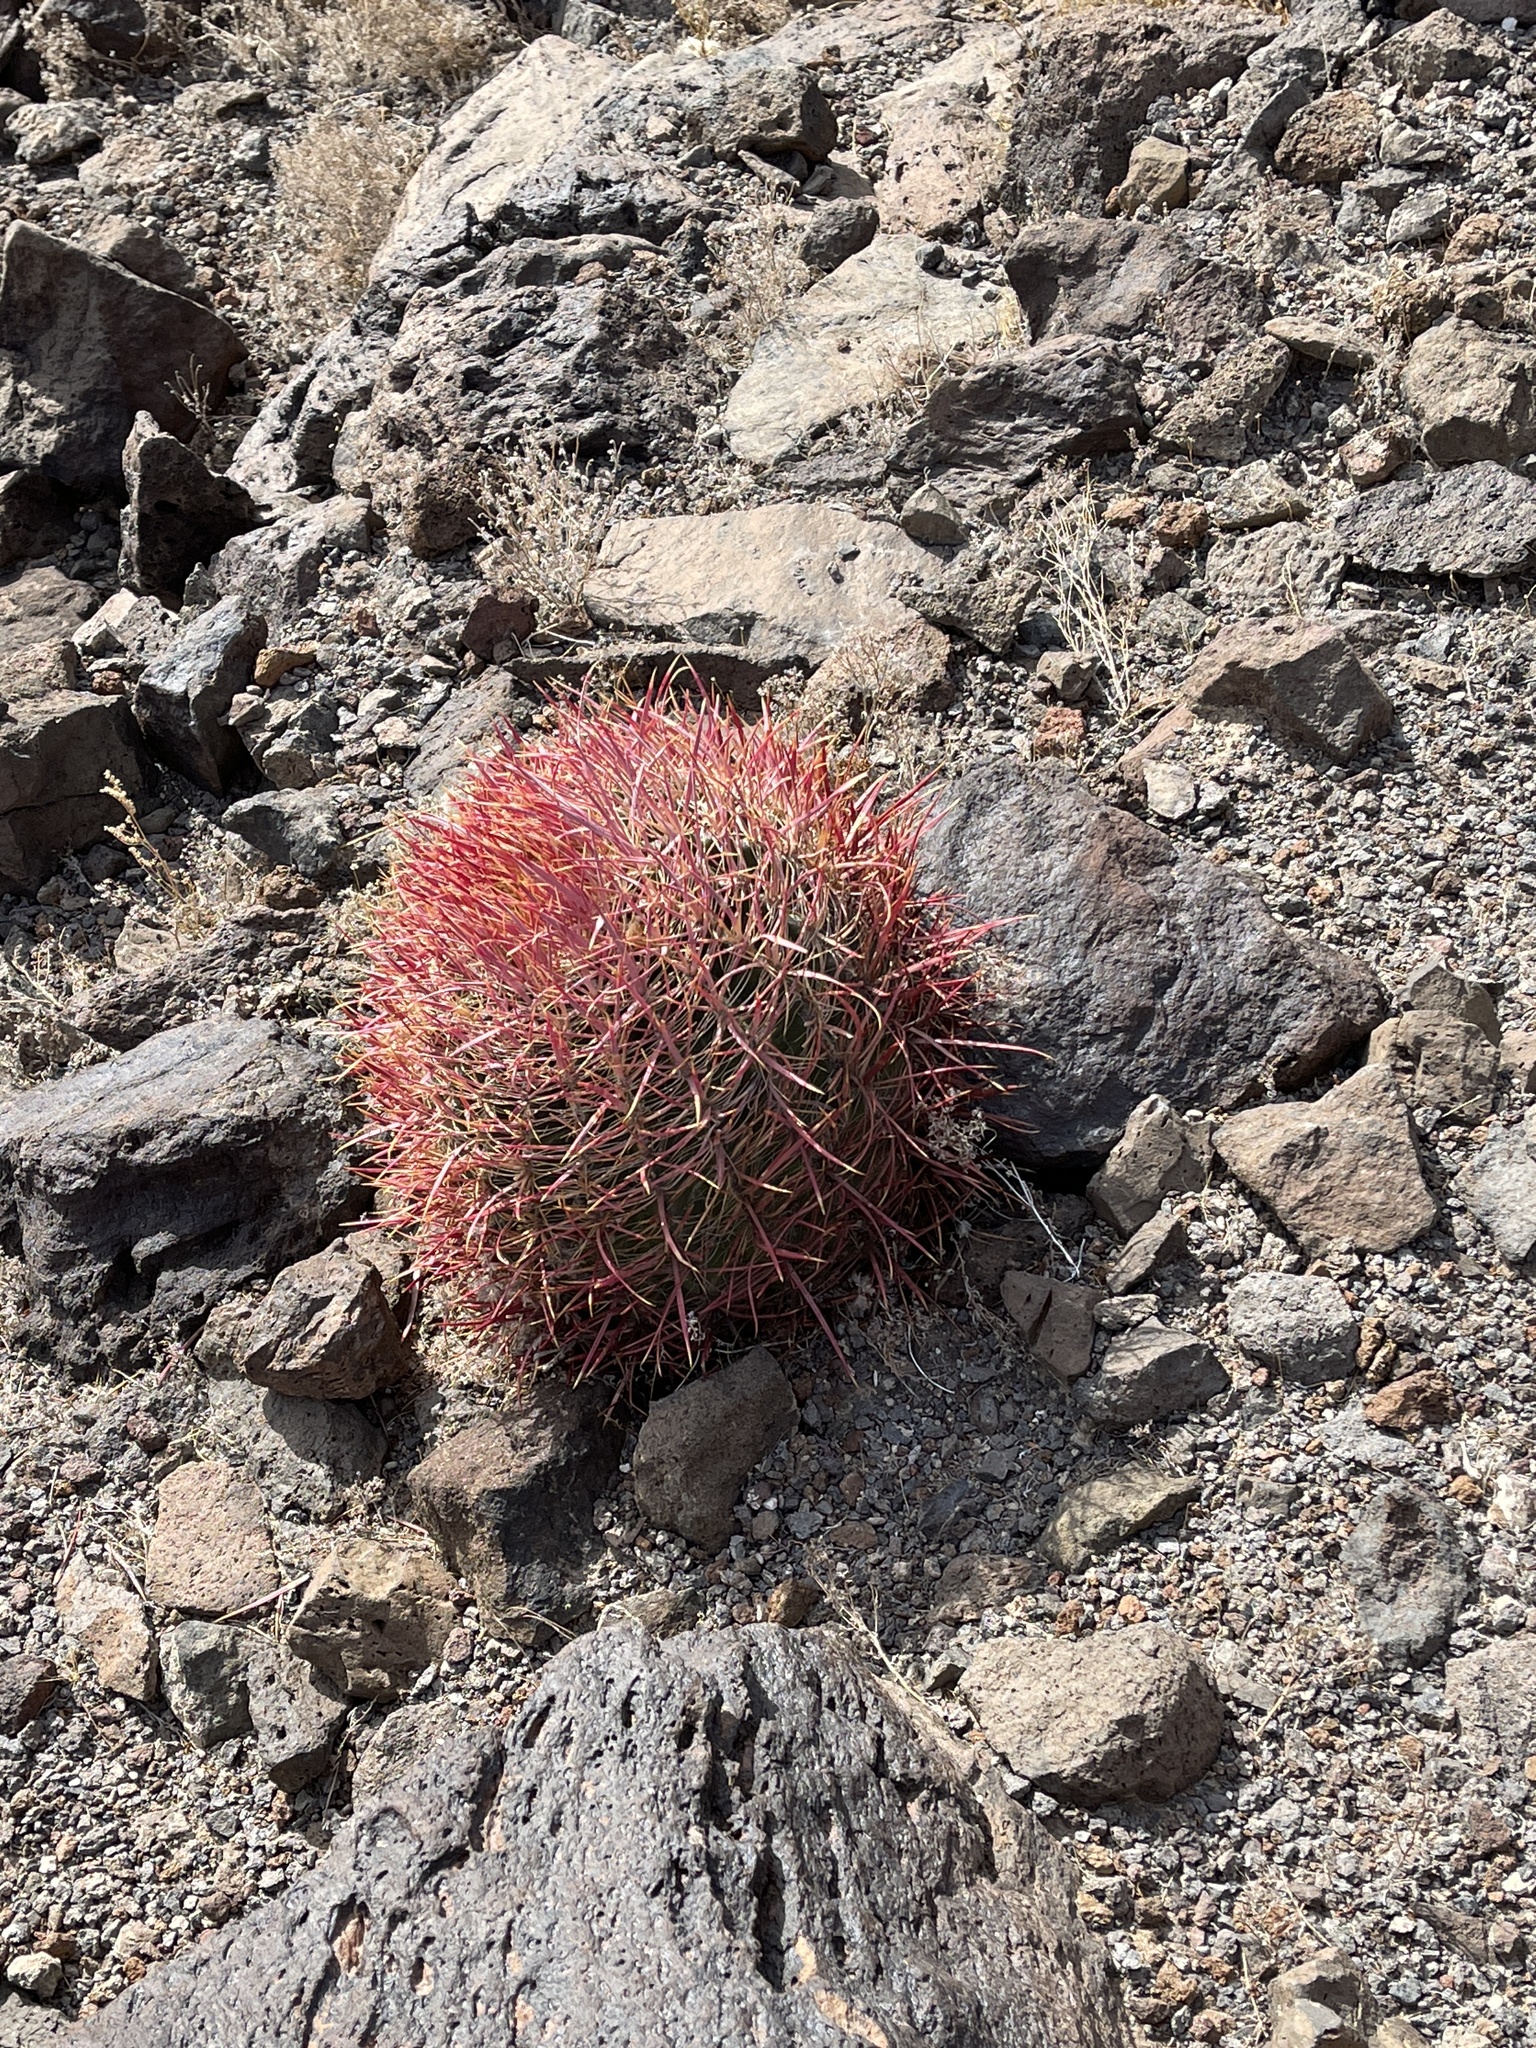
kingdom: Plantae
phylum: Tracheophyta
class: Magnoliopsida
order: Caryophyllales
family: Cactaceae
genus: Ferocactus
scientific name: Ferocactus cylindraceus
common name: California barrel cactus
